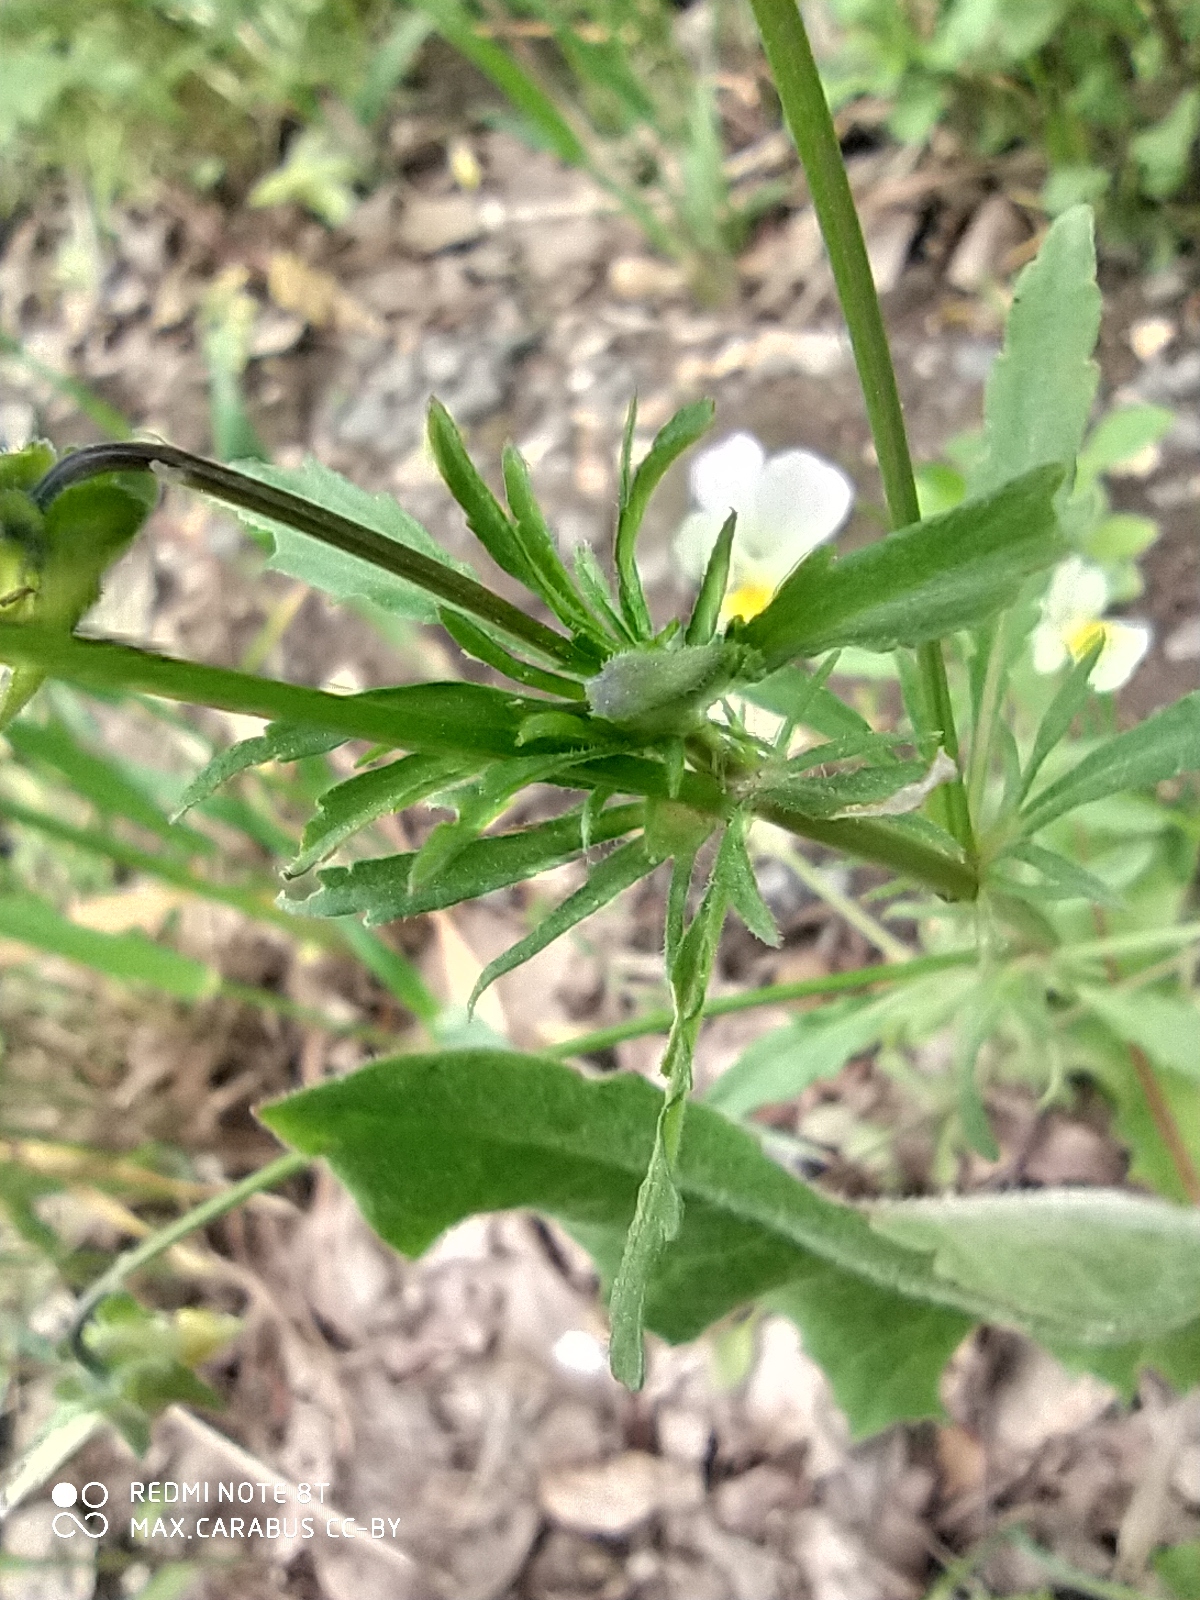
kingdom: Plantae
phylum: Tracheophyta
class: Magnoliopsida
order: Malpighiales
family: Violaceae
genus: Viola
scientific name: Viola contempta
